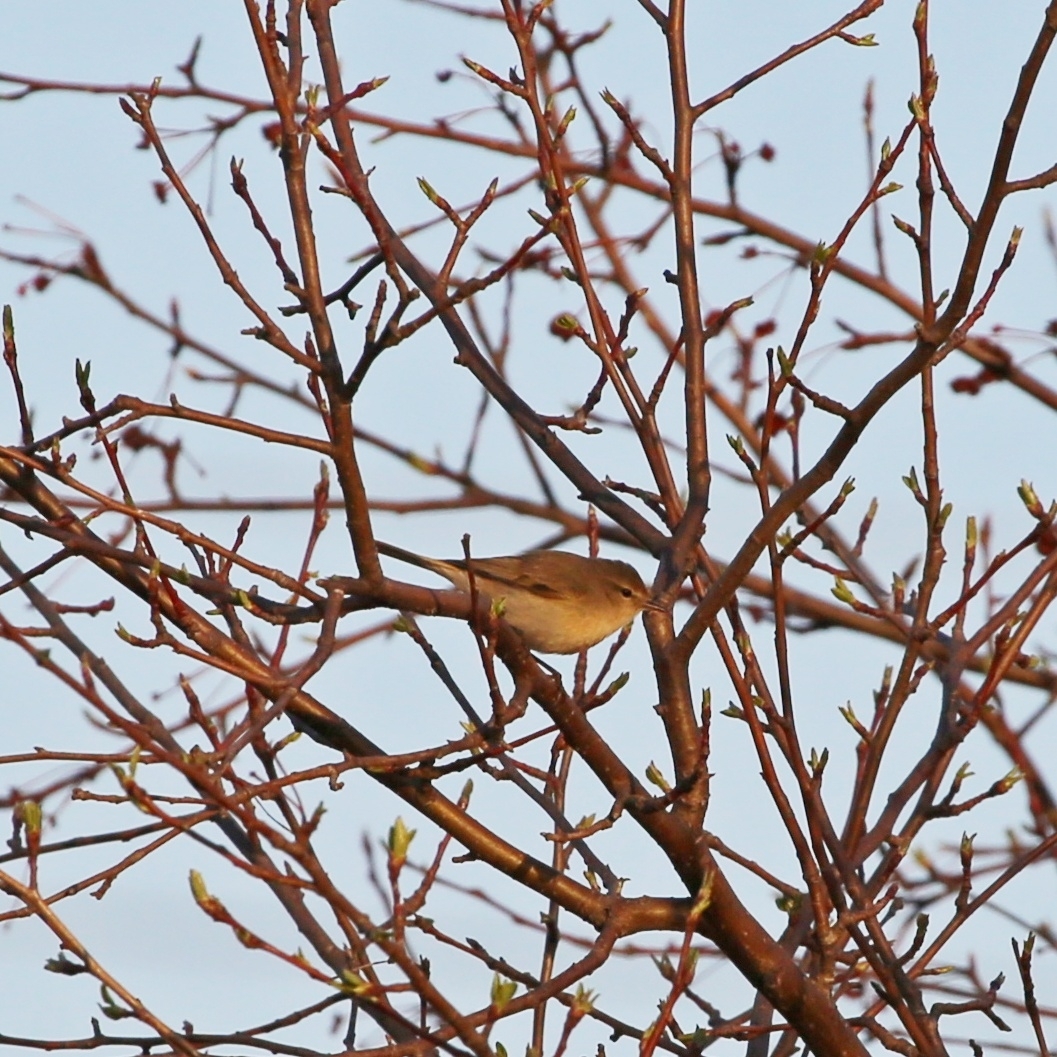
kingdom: Animalia
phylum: Chordata
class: Aves
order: Passeriformes
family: Phylloscopidae
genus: Phylloscopus
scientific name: Phylloscopus collybita
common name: Common chiffchaff
